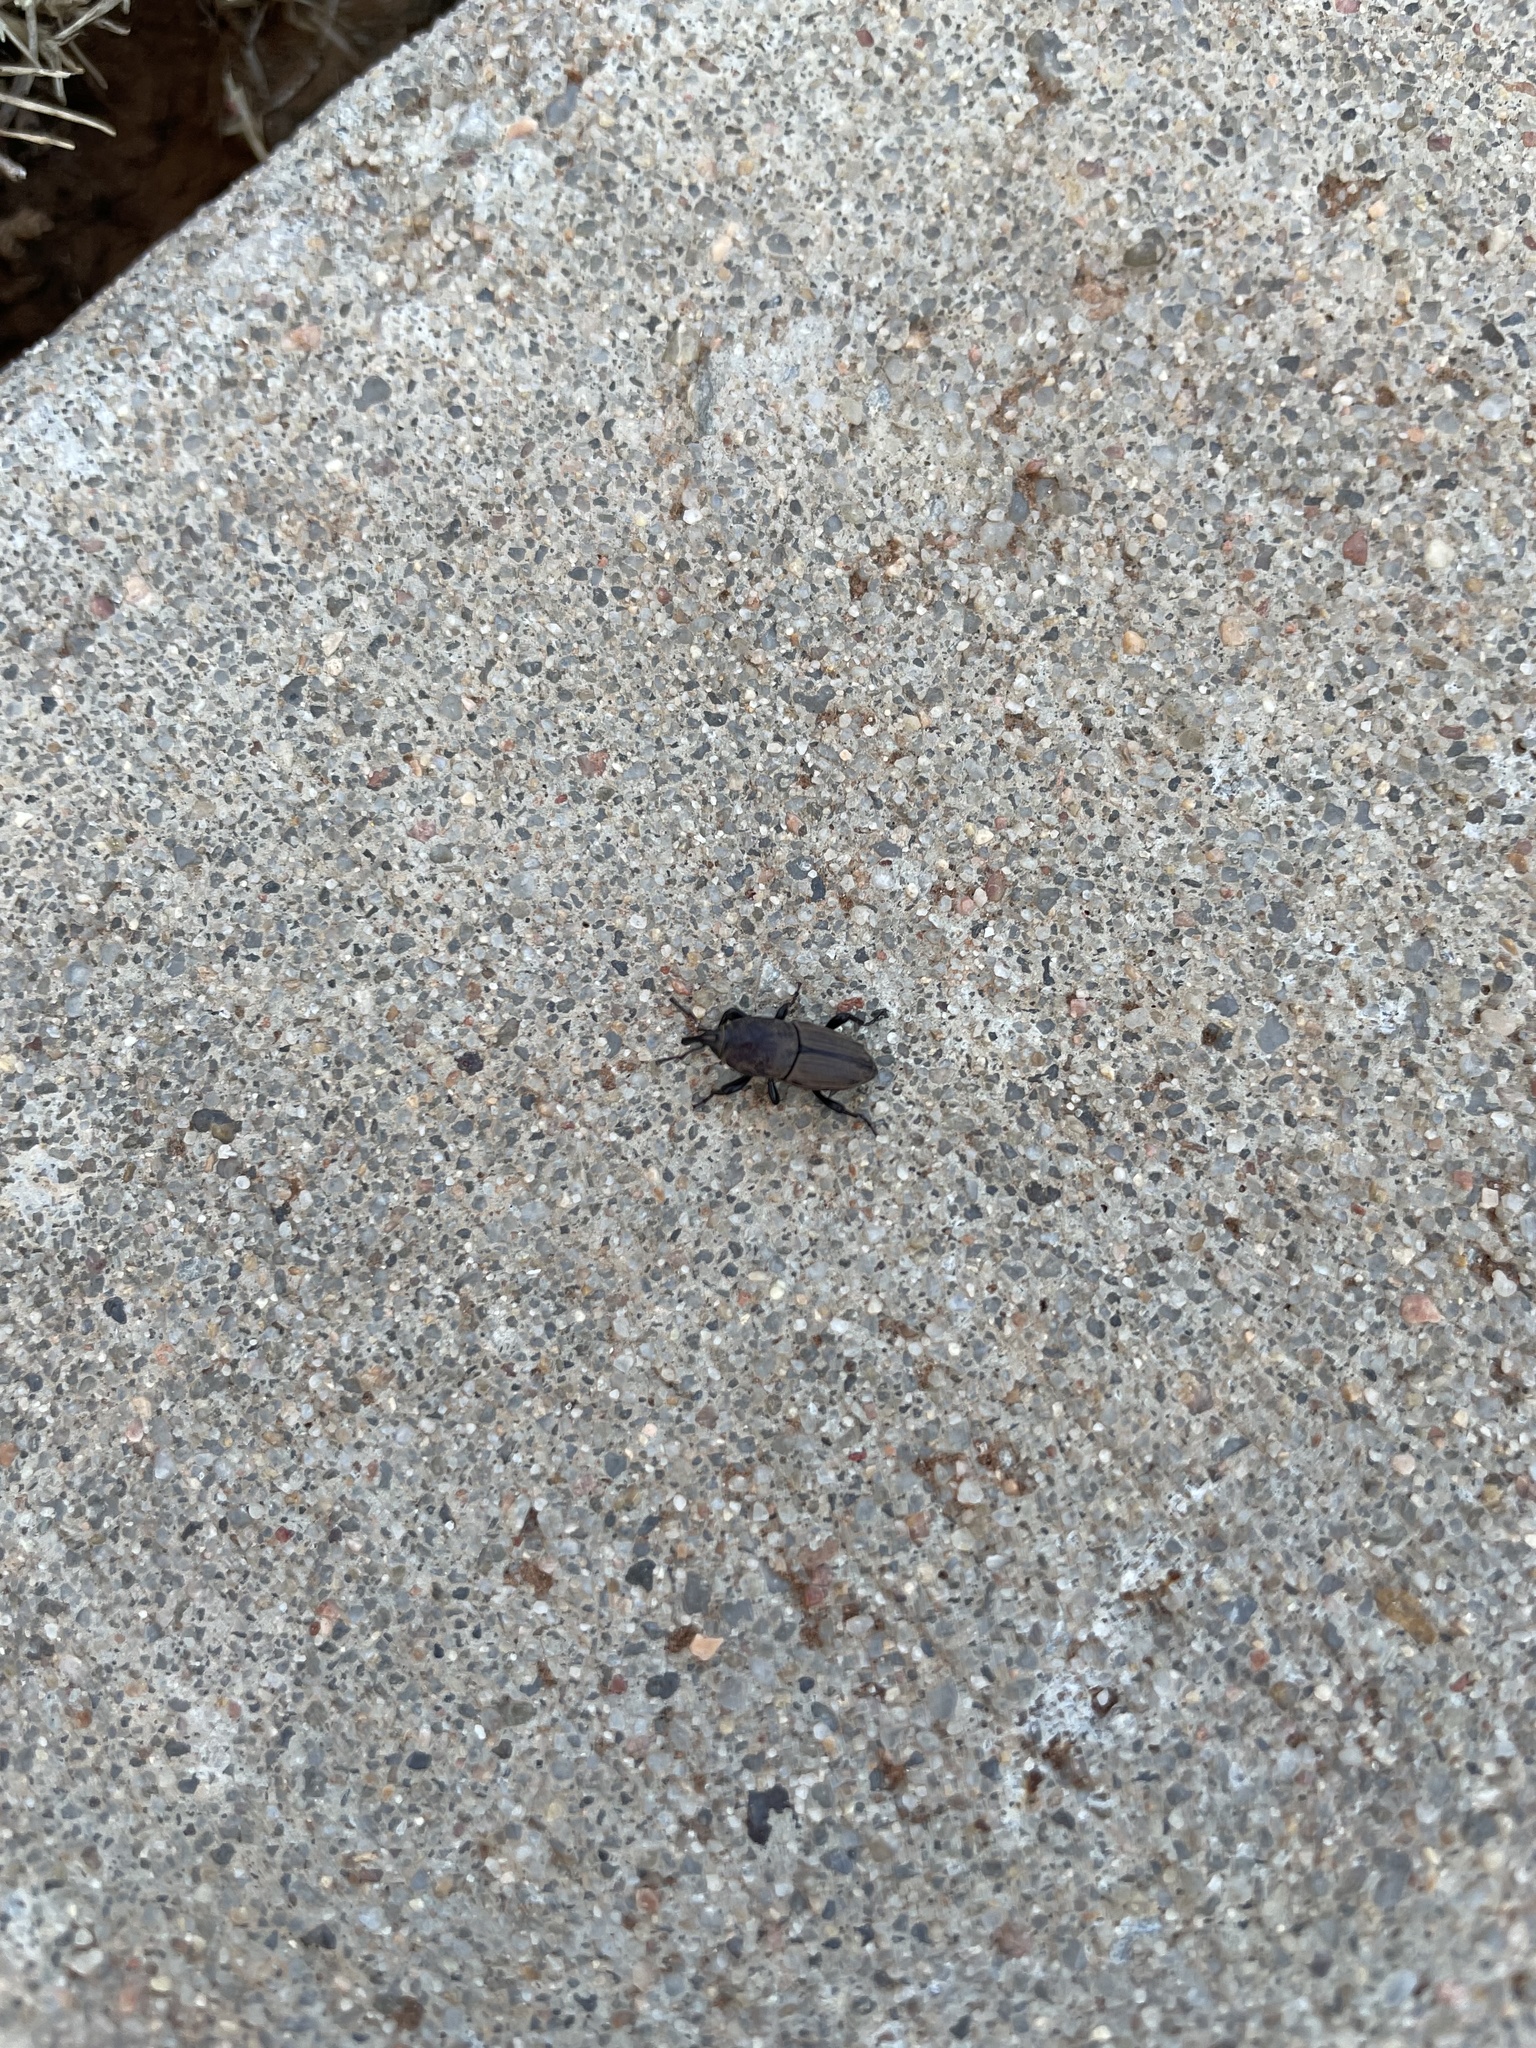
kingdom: Animalia
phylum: Arthropoda
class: Insecta
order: Coleoptera
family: Dryophthoridae
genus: Sphenophorus
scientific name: Sphenophorus coesifrons
